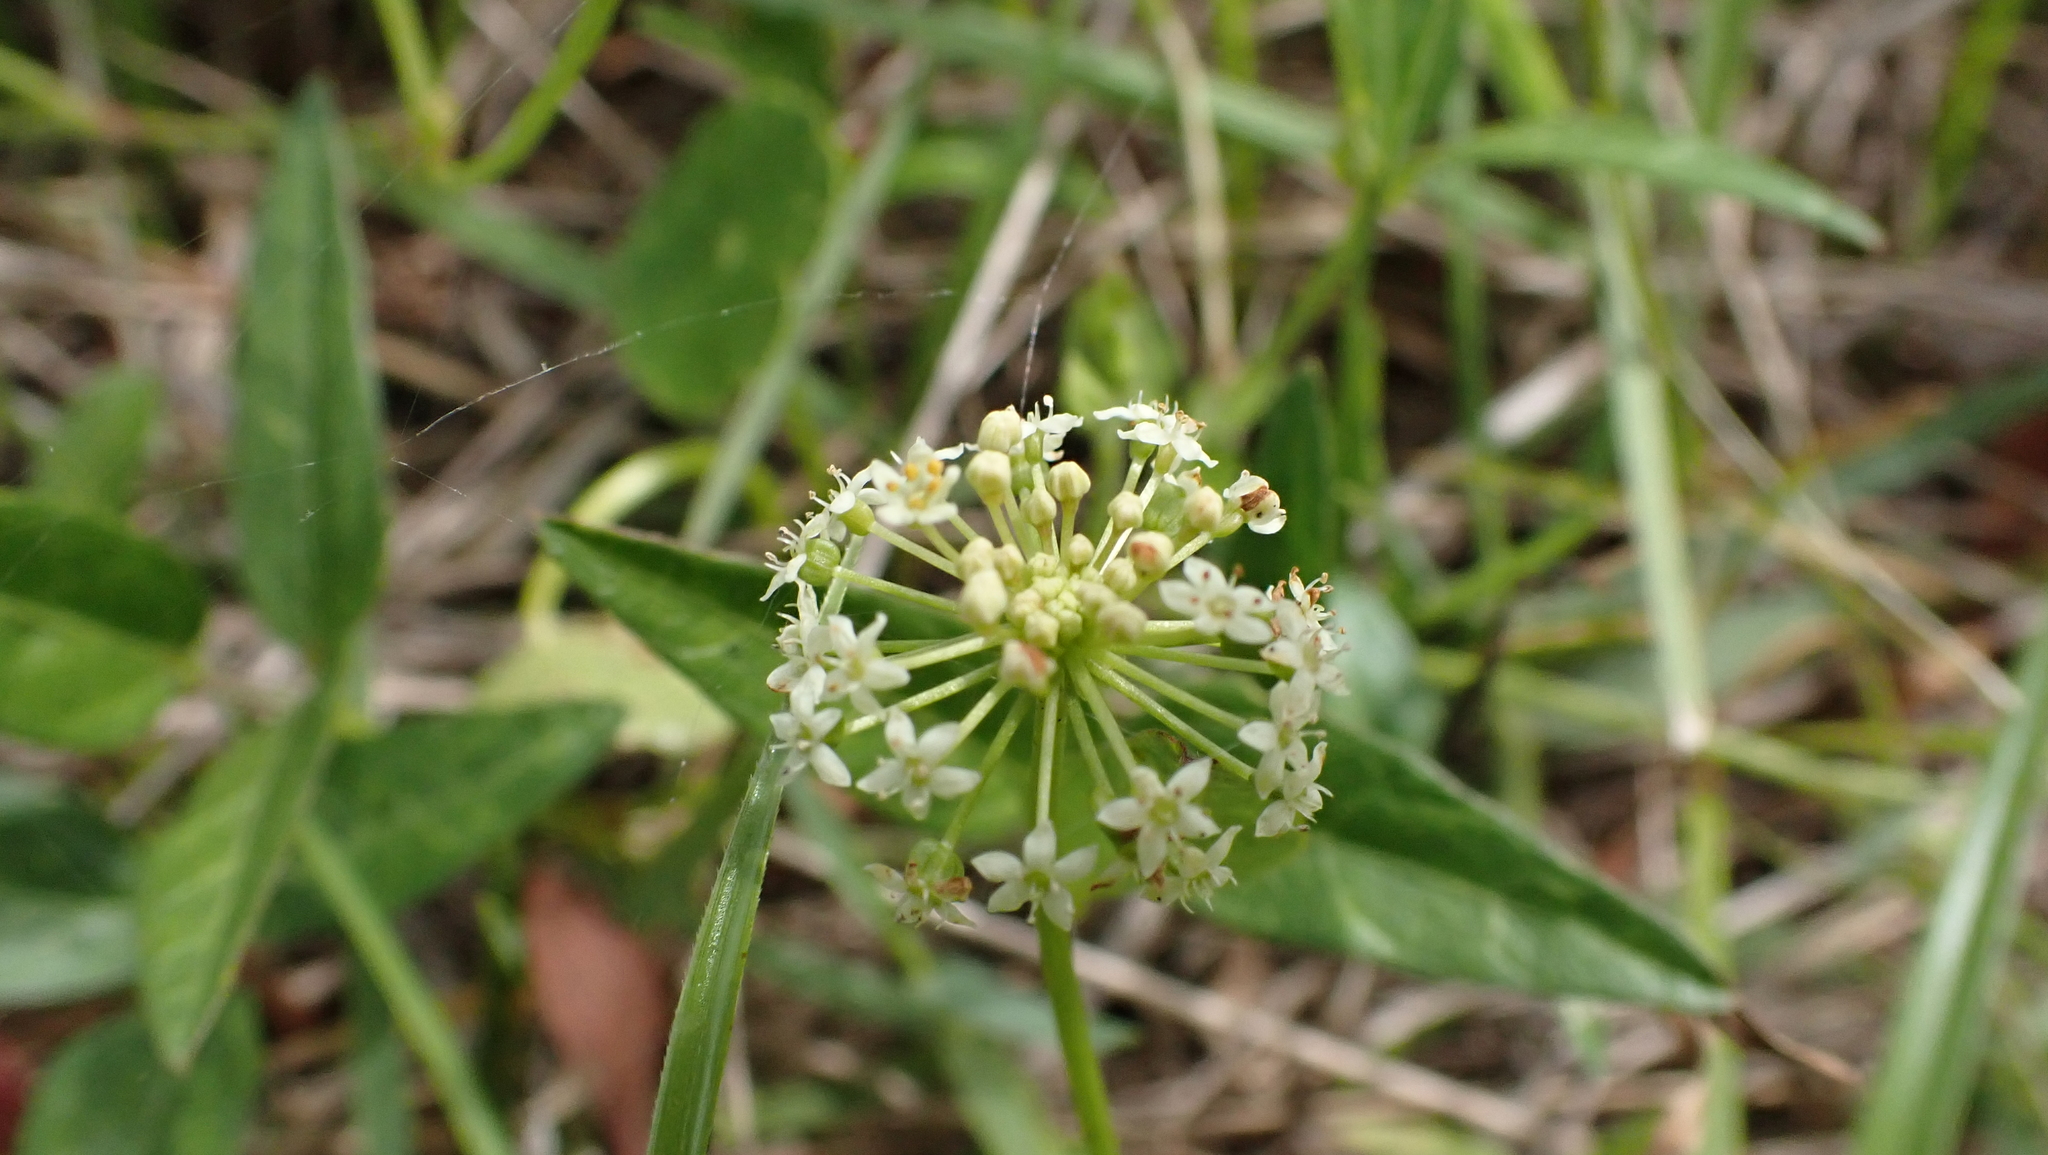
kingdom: Plantae
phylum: Tracheophyta
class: Magnoliopsida
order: Apiales
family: Araliaceae
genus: Hydrocotyle
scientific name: Hydrocotyle umbellata
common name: Water pennywort
